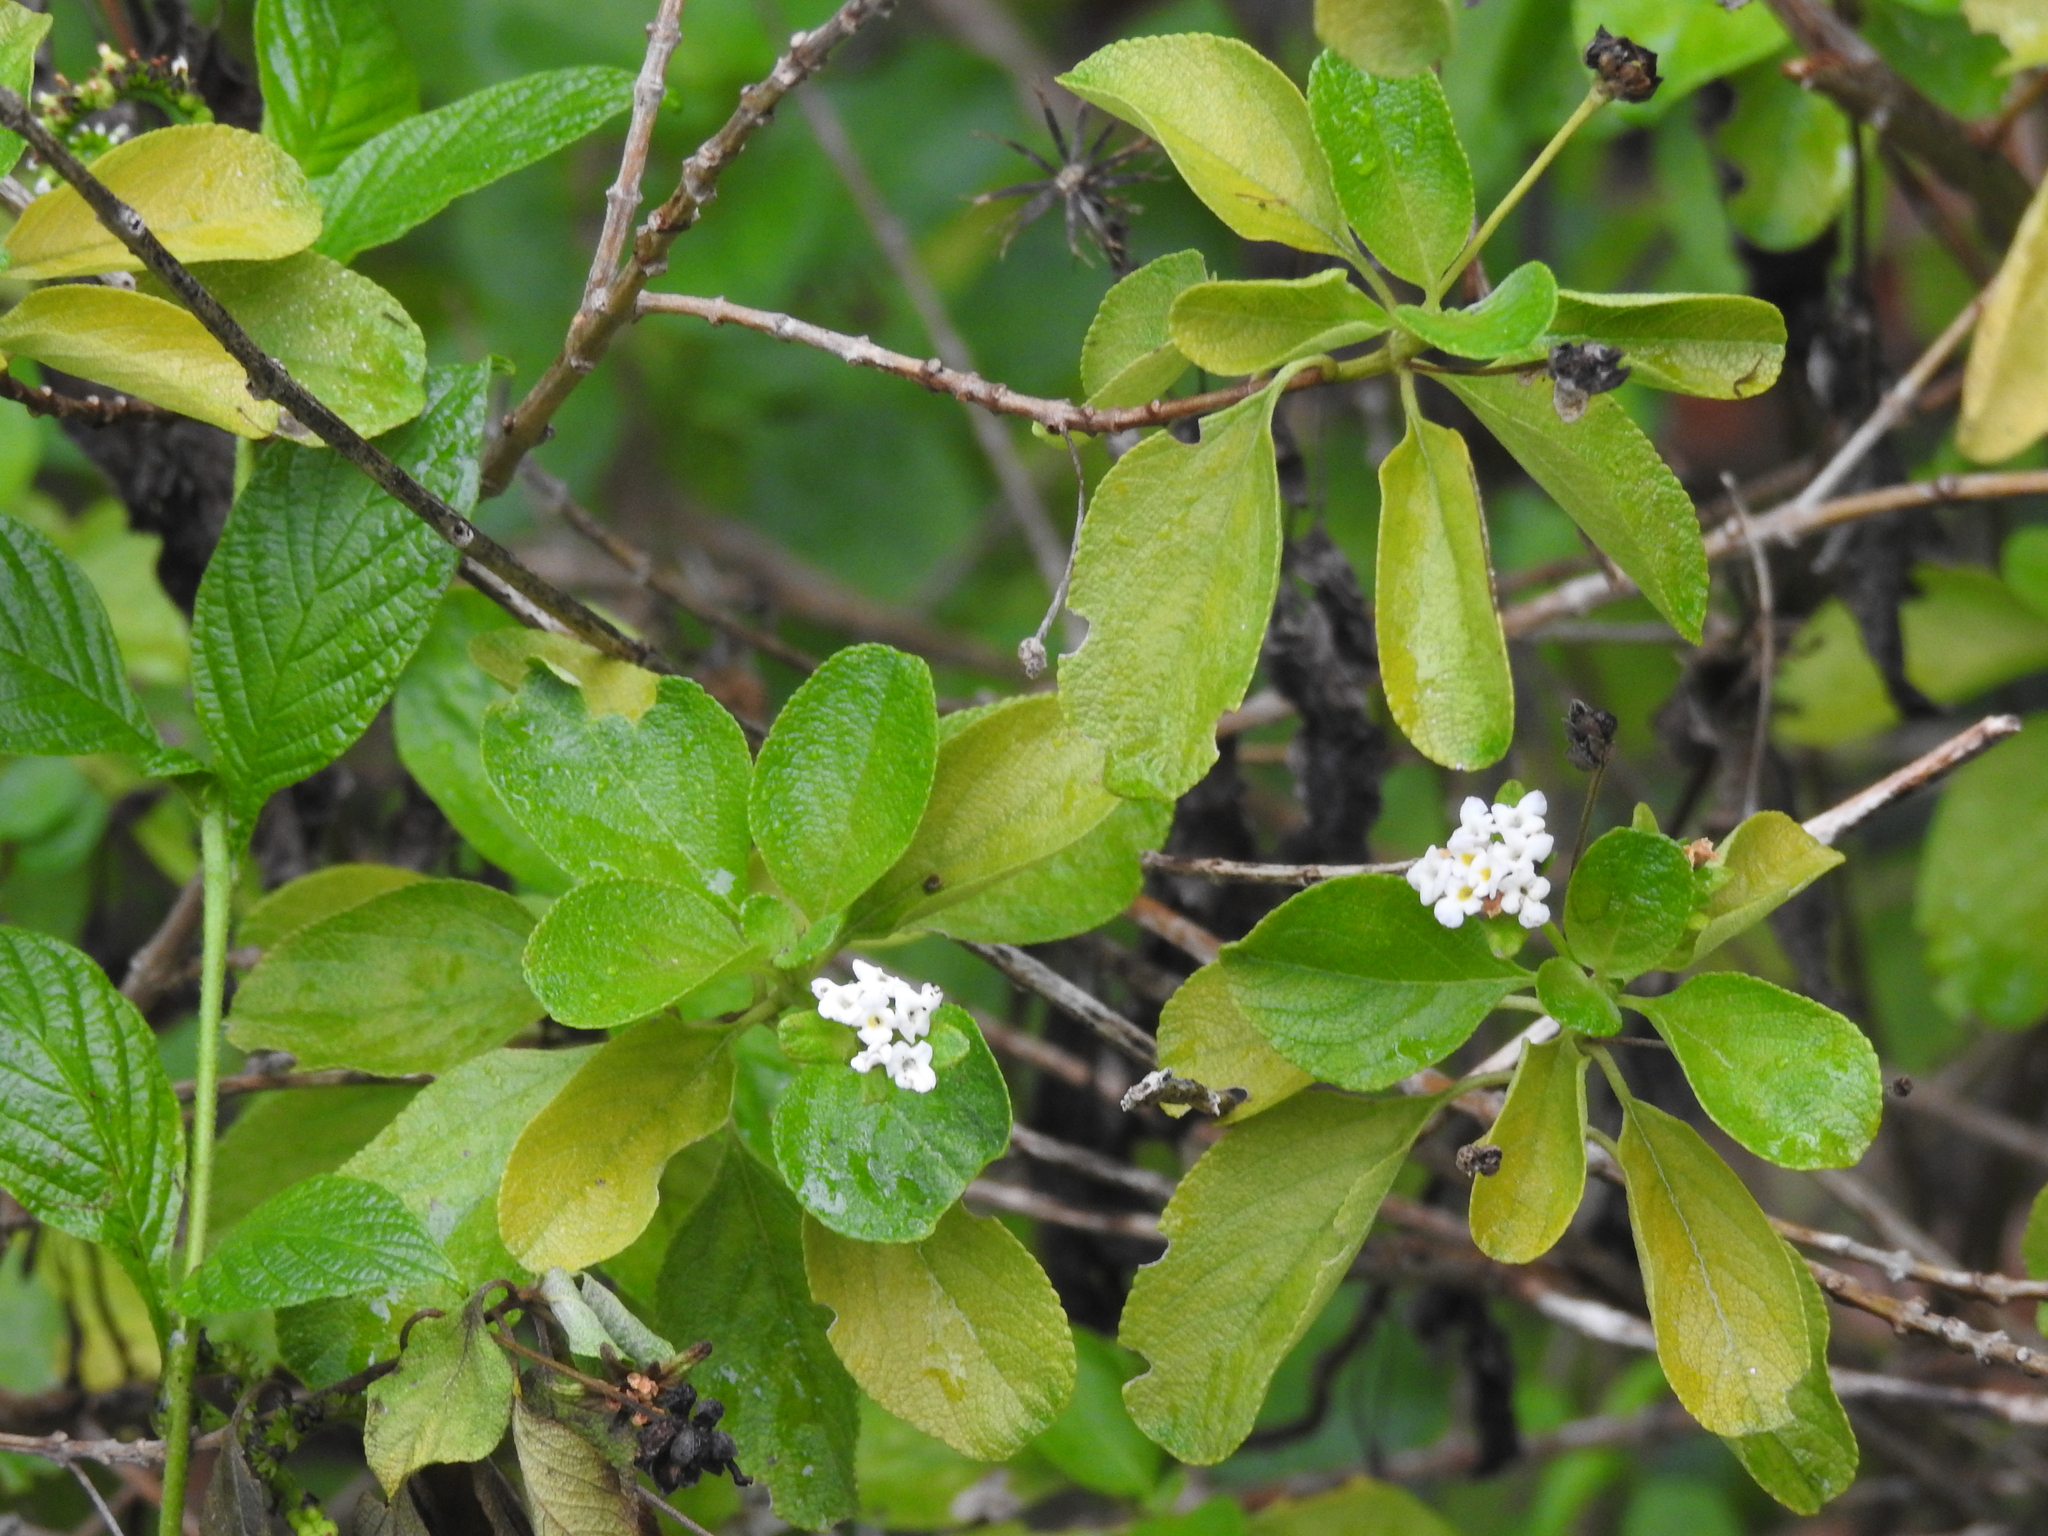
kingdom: Plantae
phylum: Tracheophyta
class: Magnoliopsida
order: Lamiales
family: Verbenaceae
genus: Lantana
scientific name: Lantana involucrata
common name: Black sage
